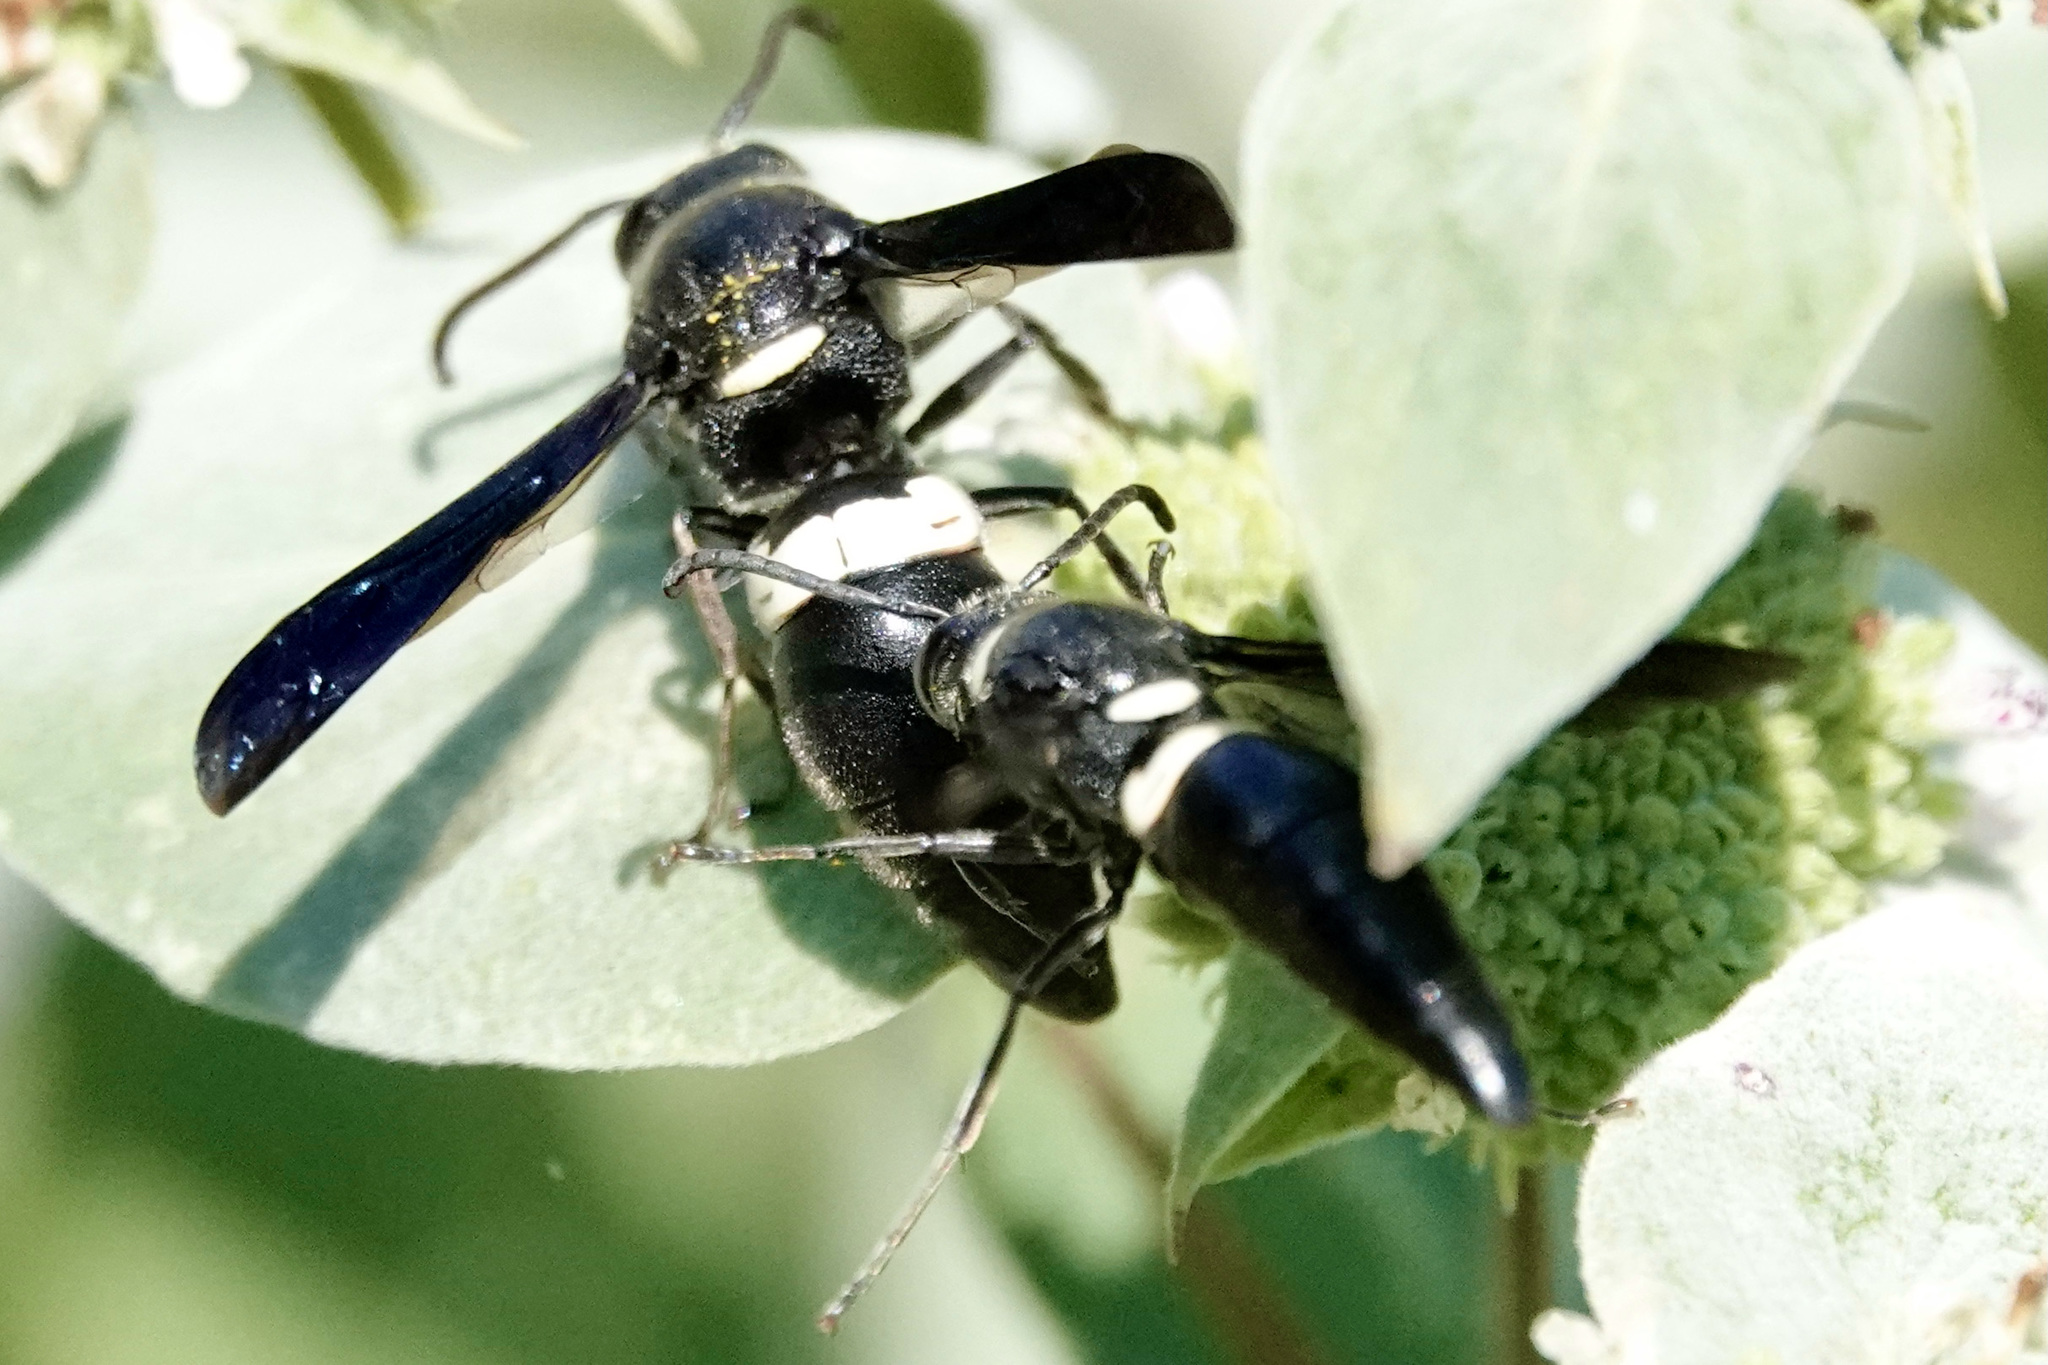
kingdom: Animalia
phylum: Arthropoda
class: Insecta
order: Hymenoptera
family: Eumenidae
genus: Monobia
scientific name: Monobia quadridens
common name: Four-toothed mason wasp
